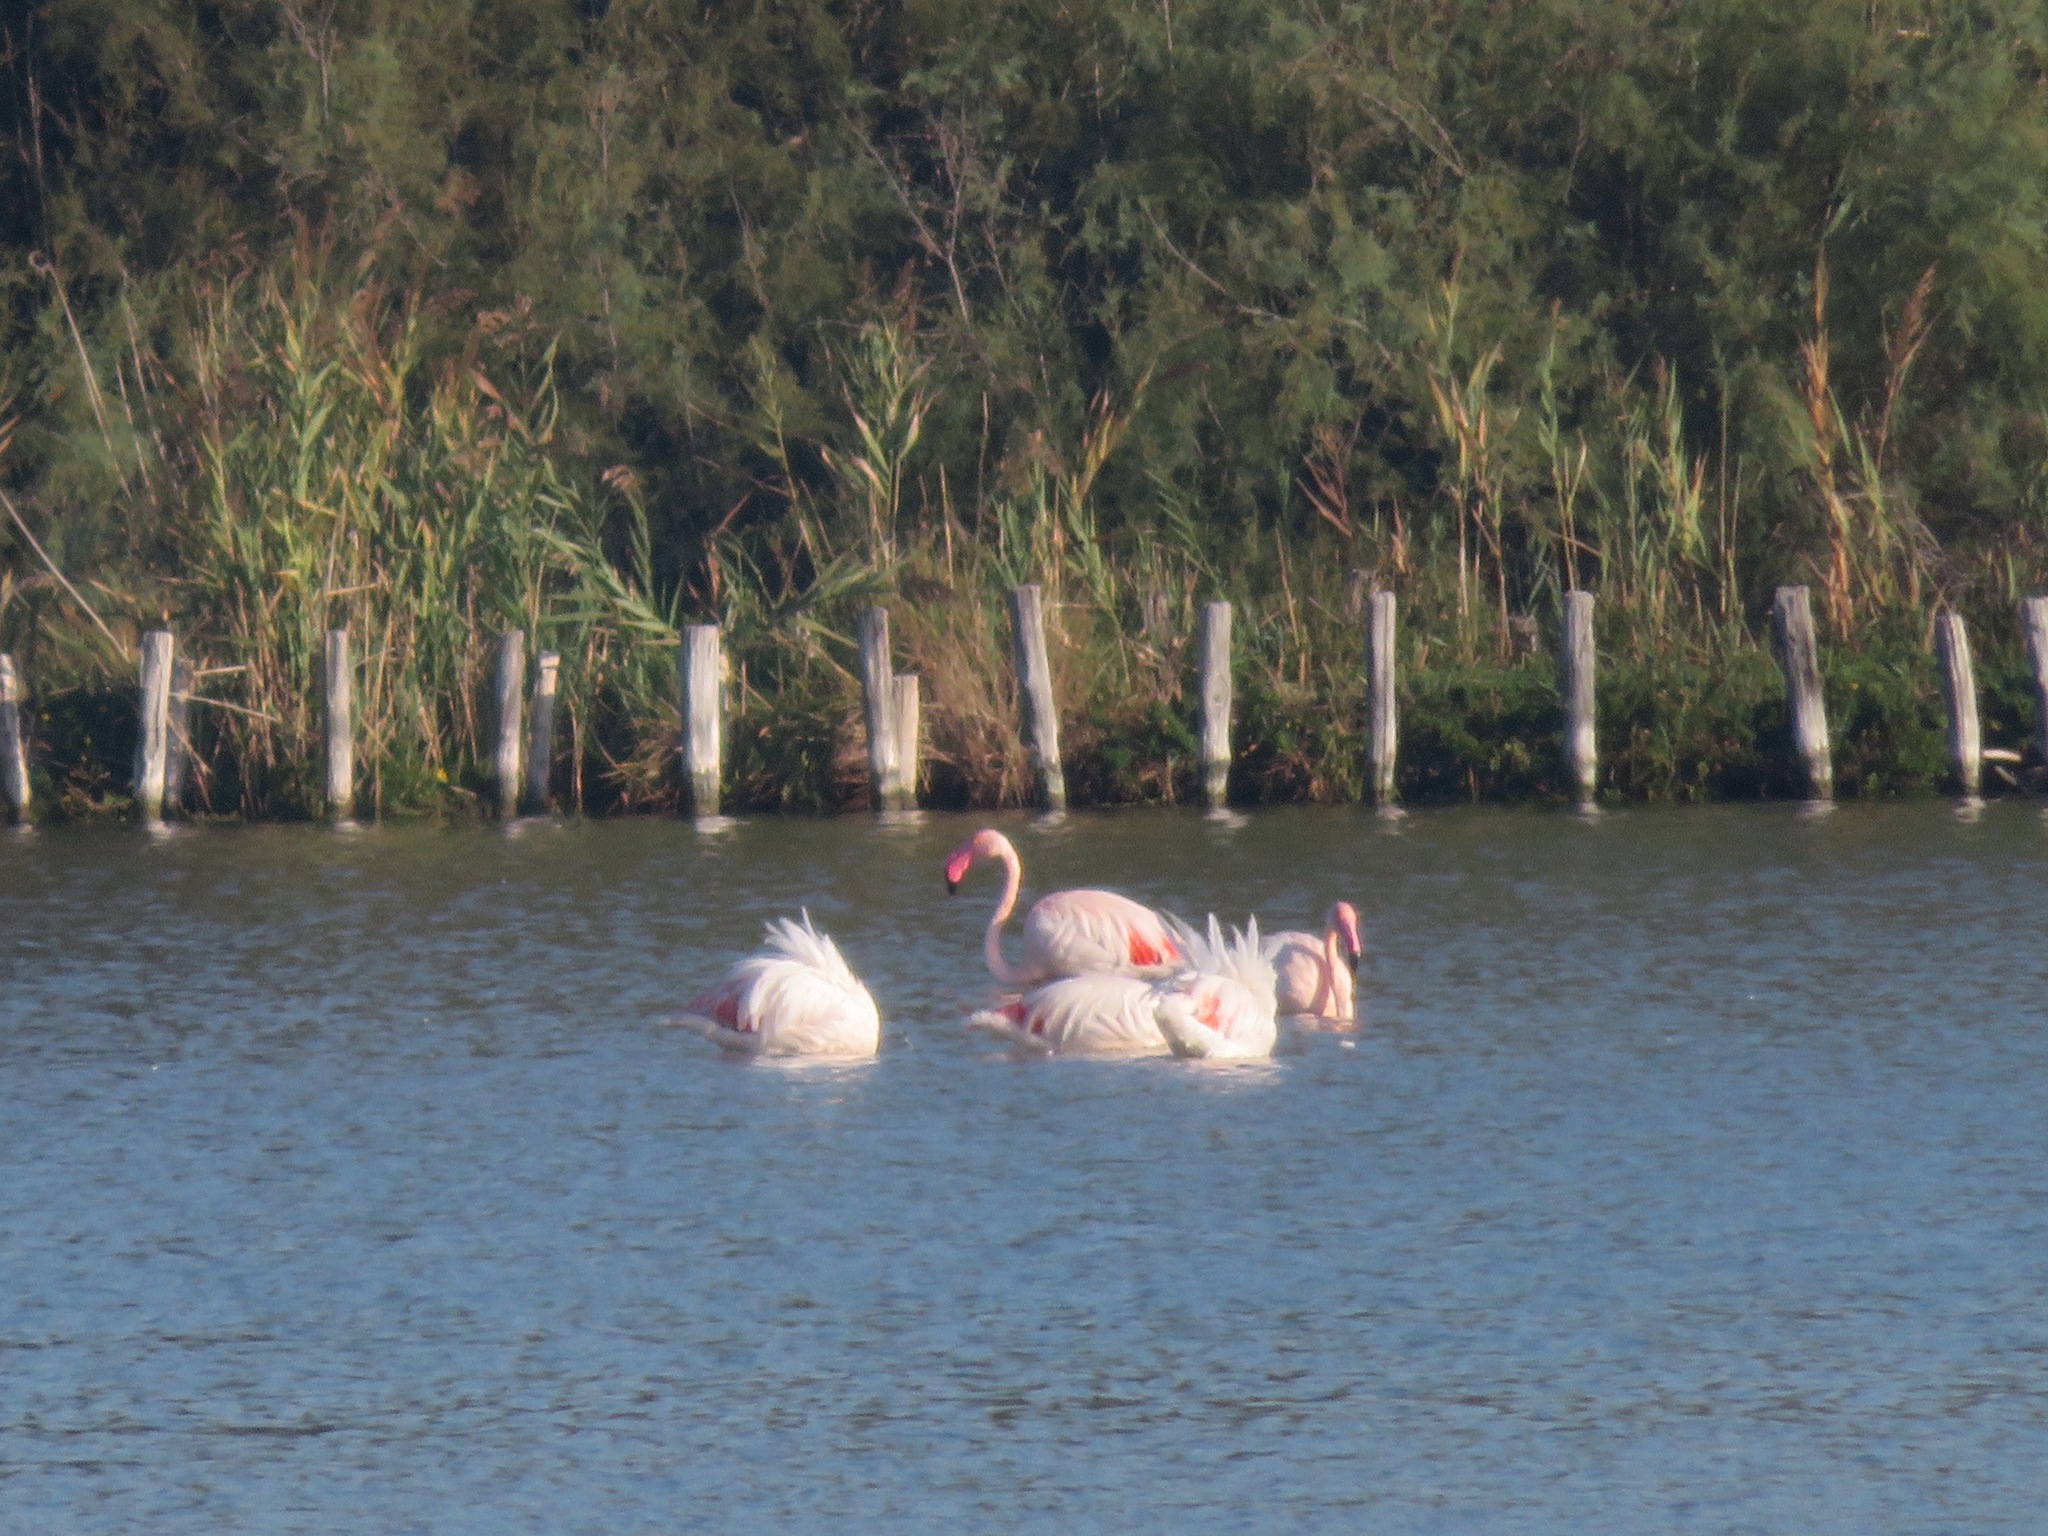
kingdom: Animalia
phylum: Chordata
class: Aves
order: Phoenicopteriformes
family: Phoenicopteridae
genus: Phoenicopterus
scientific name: Phoenicopterus roseus
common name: Greater flamingo
